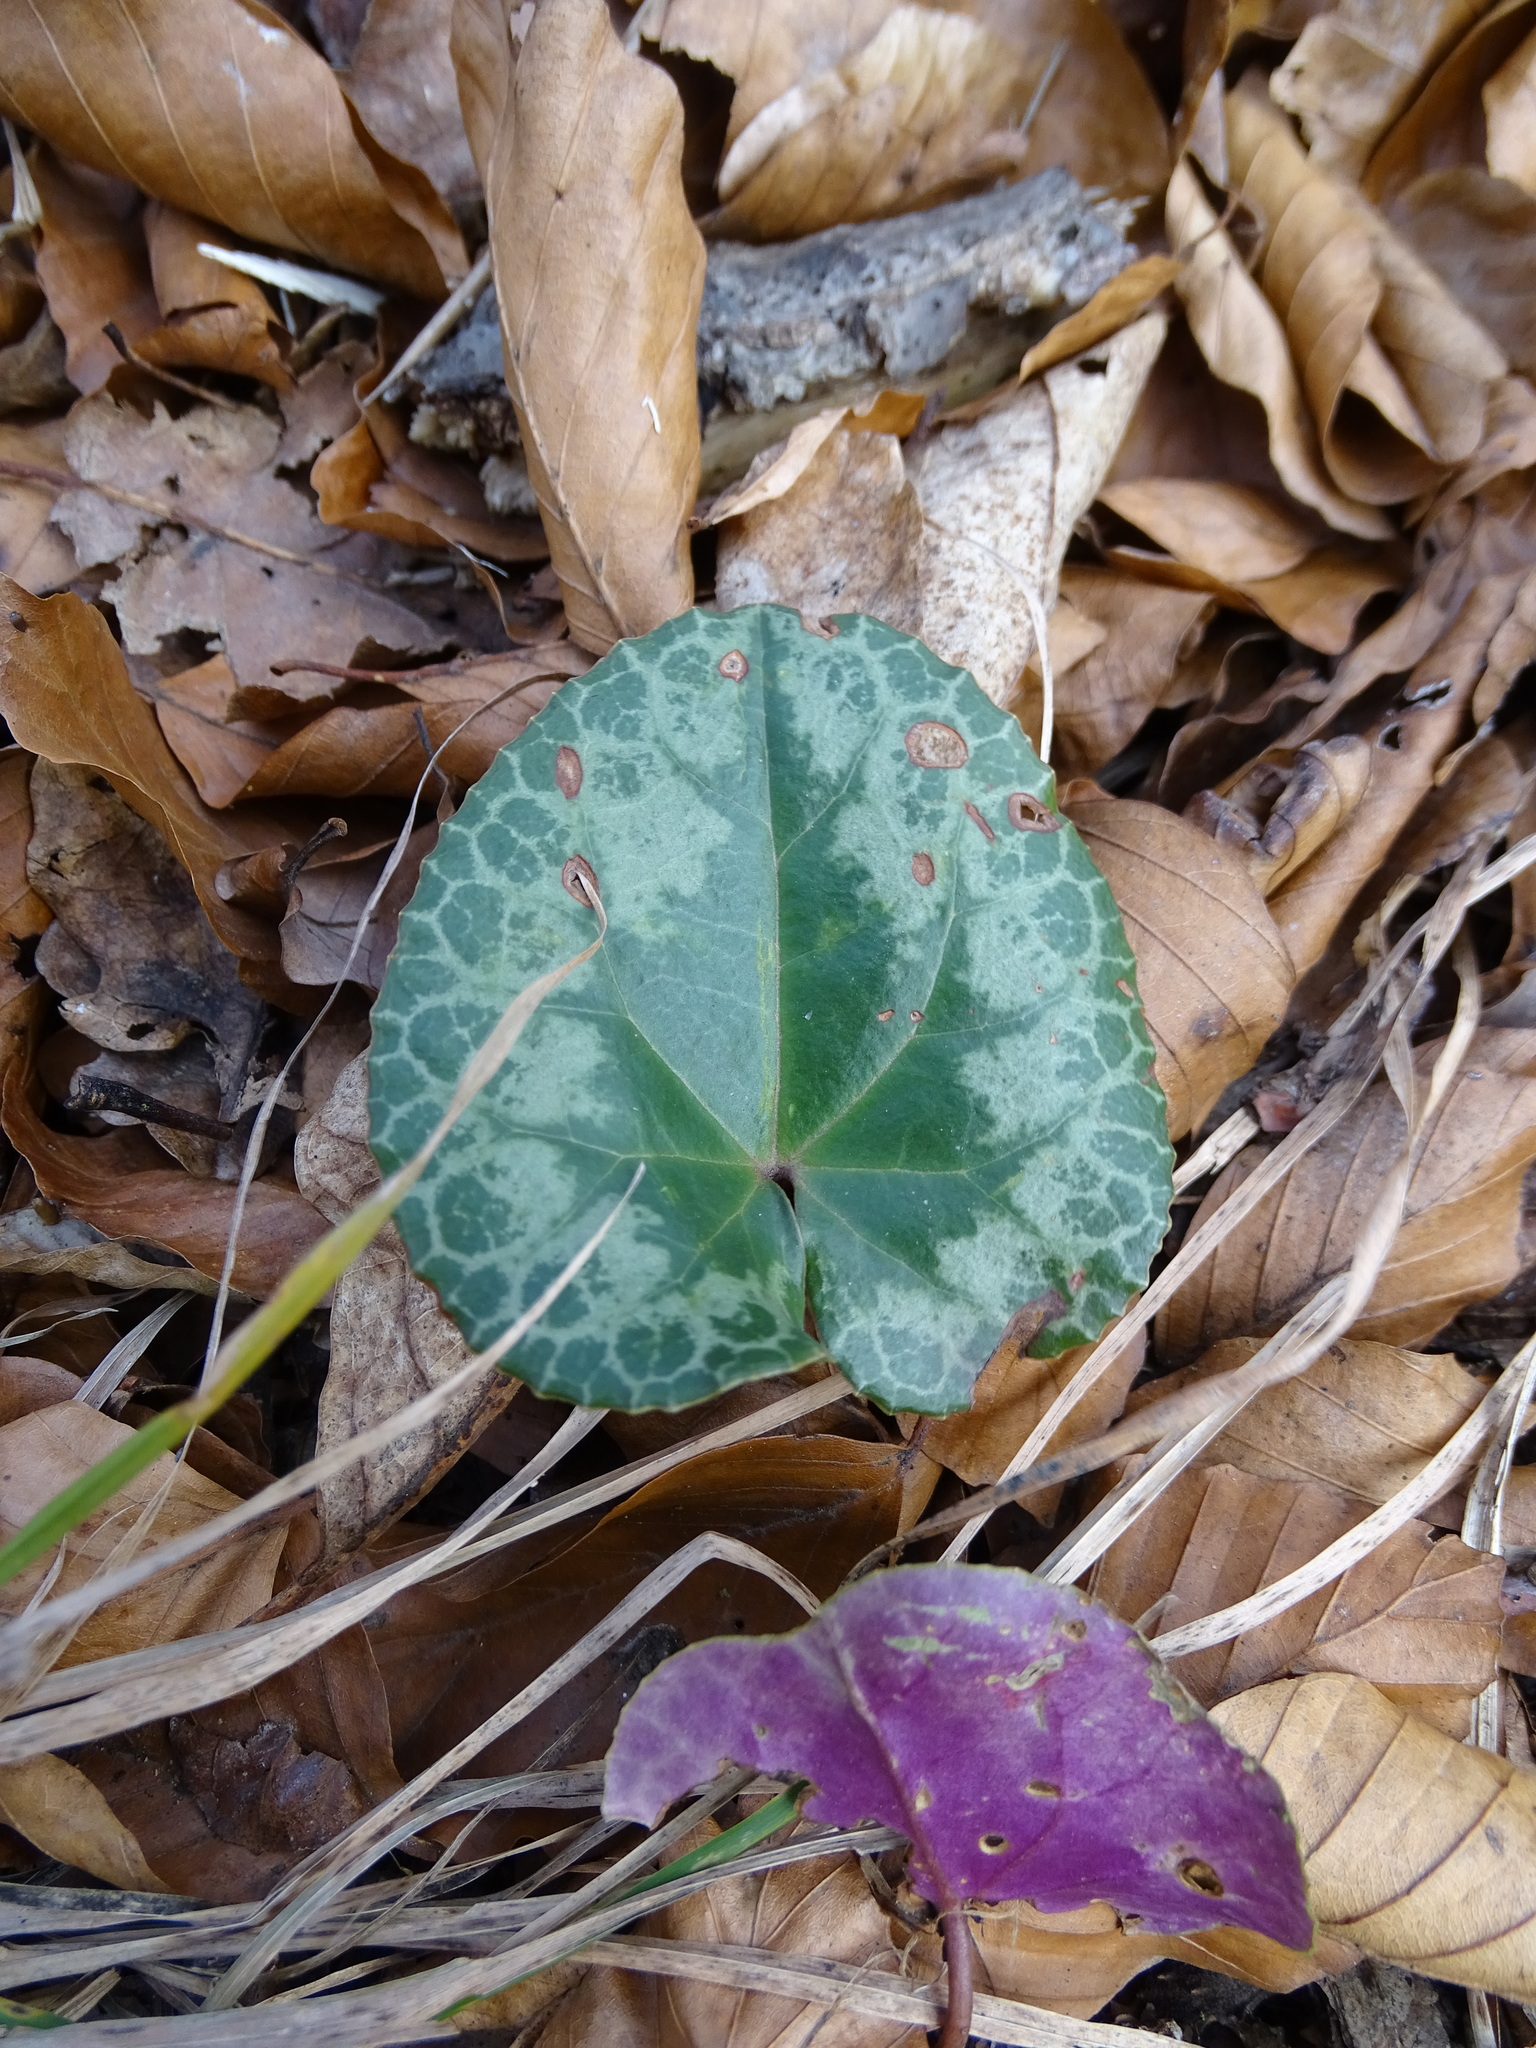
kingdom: Plantae
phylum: Tracheophyta
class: Magnoliopsida
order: Ericales
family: Primulaceae
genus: Cyclamen
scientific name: Cyclamen purpurascens
